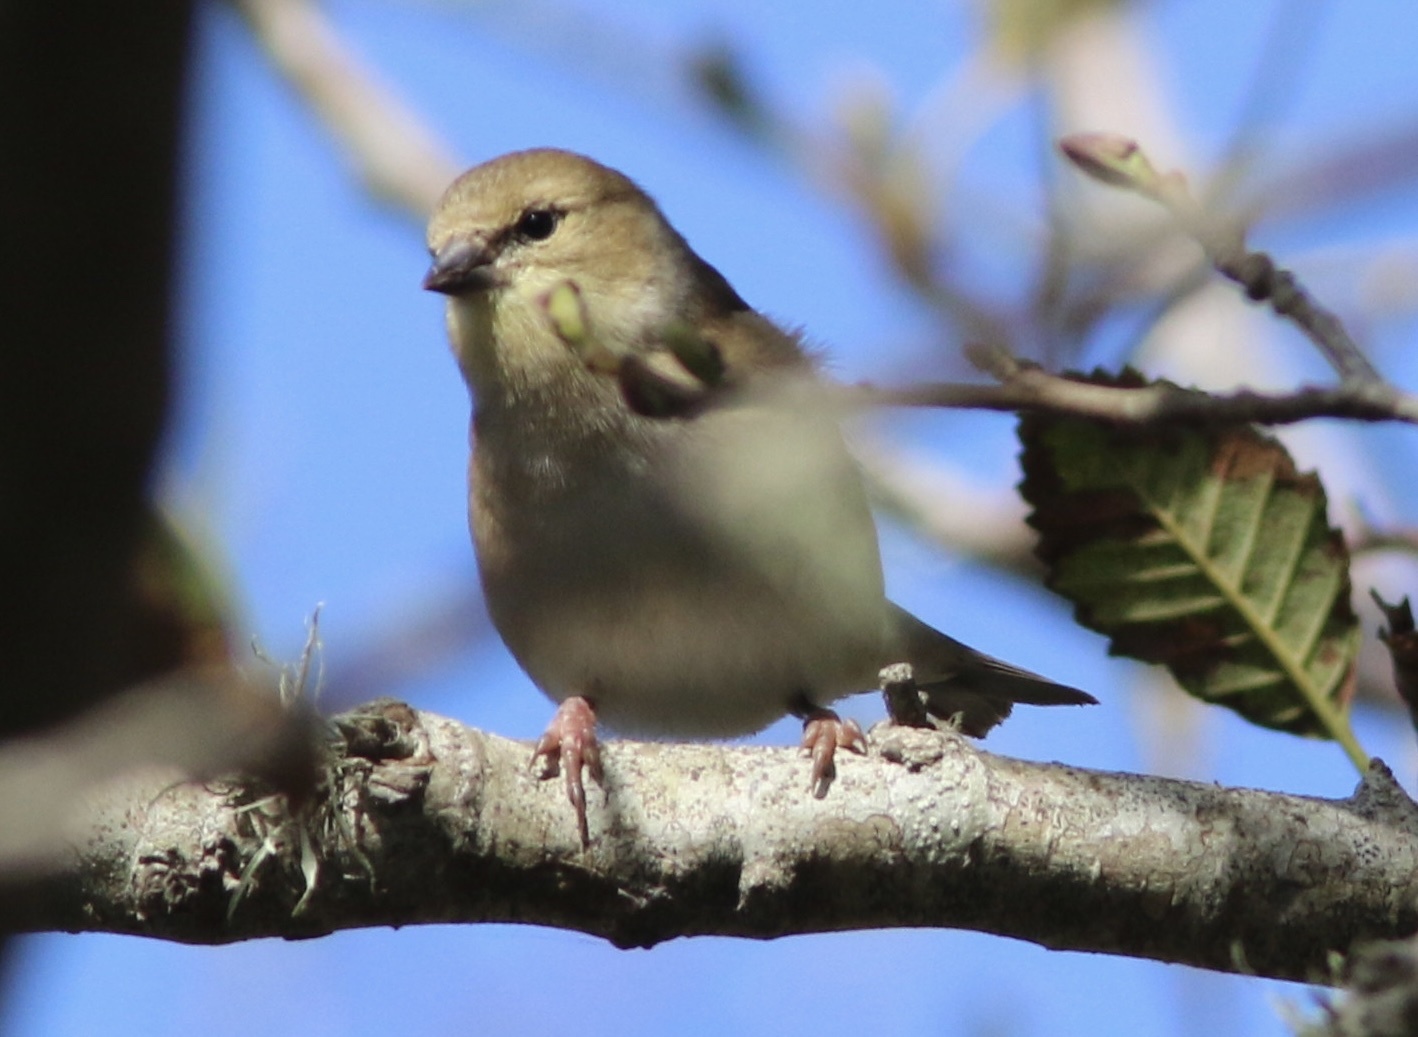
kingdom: Animalia
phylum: Chordata
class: Aves
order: Passeriformes
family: Fringillidae
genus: Spinus
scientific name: Spinus tristis
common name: American goldfinch
